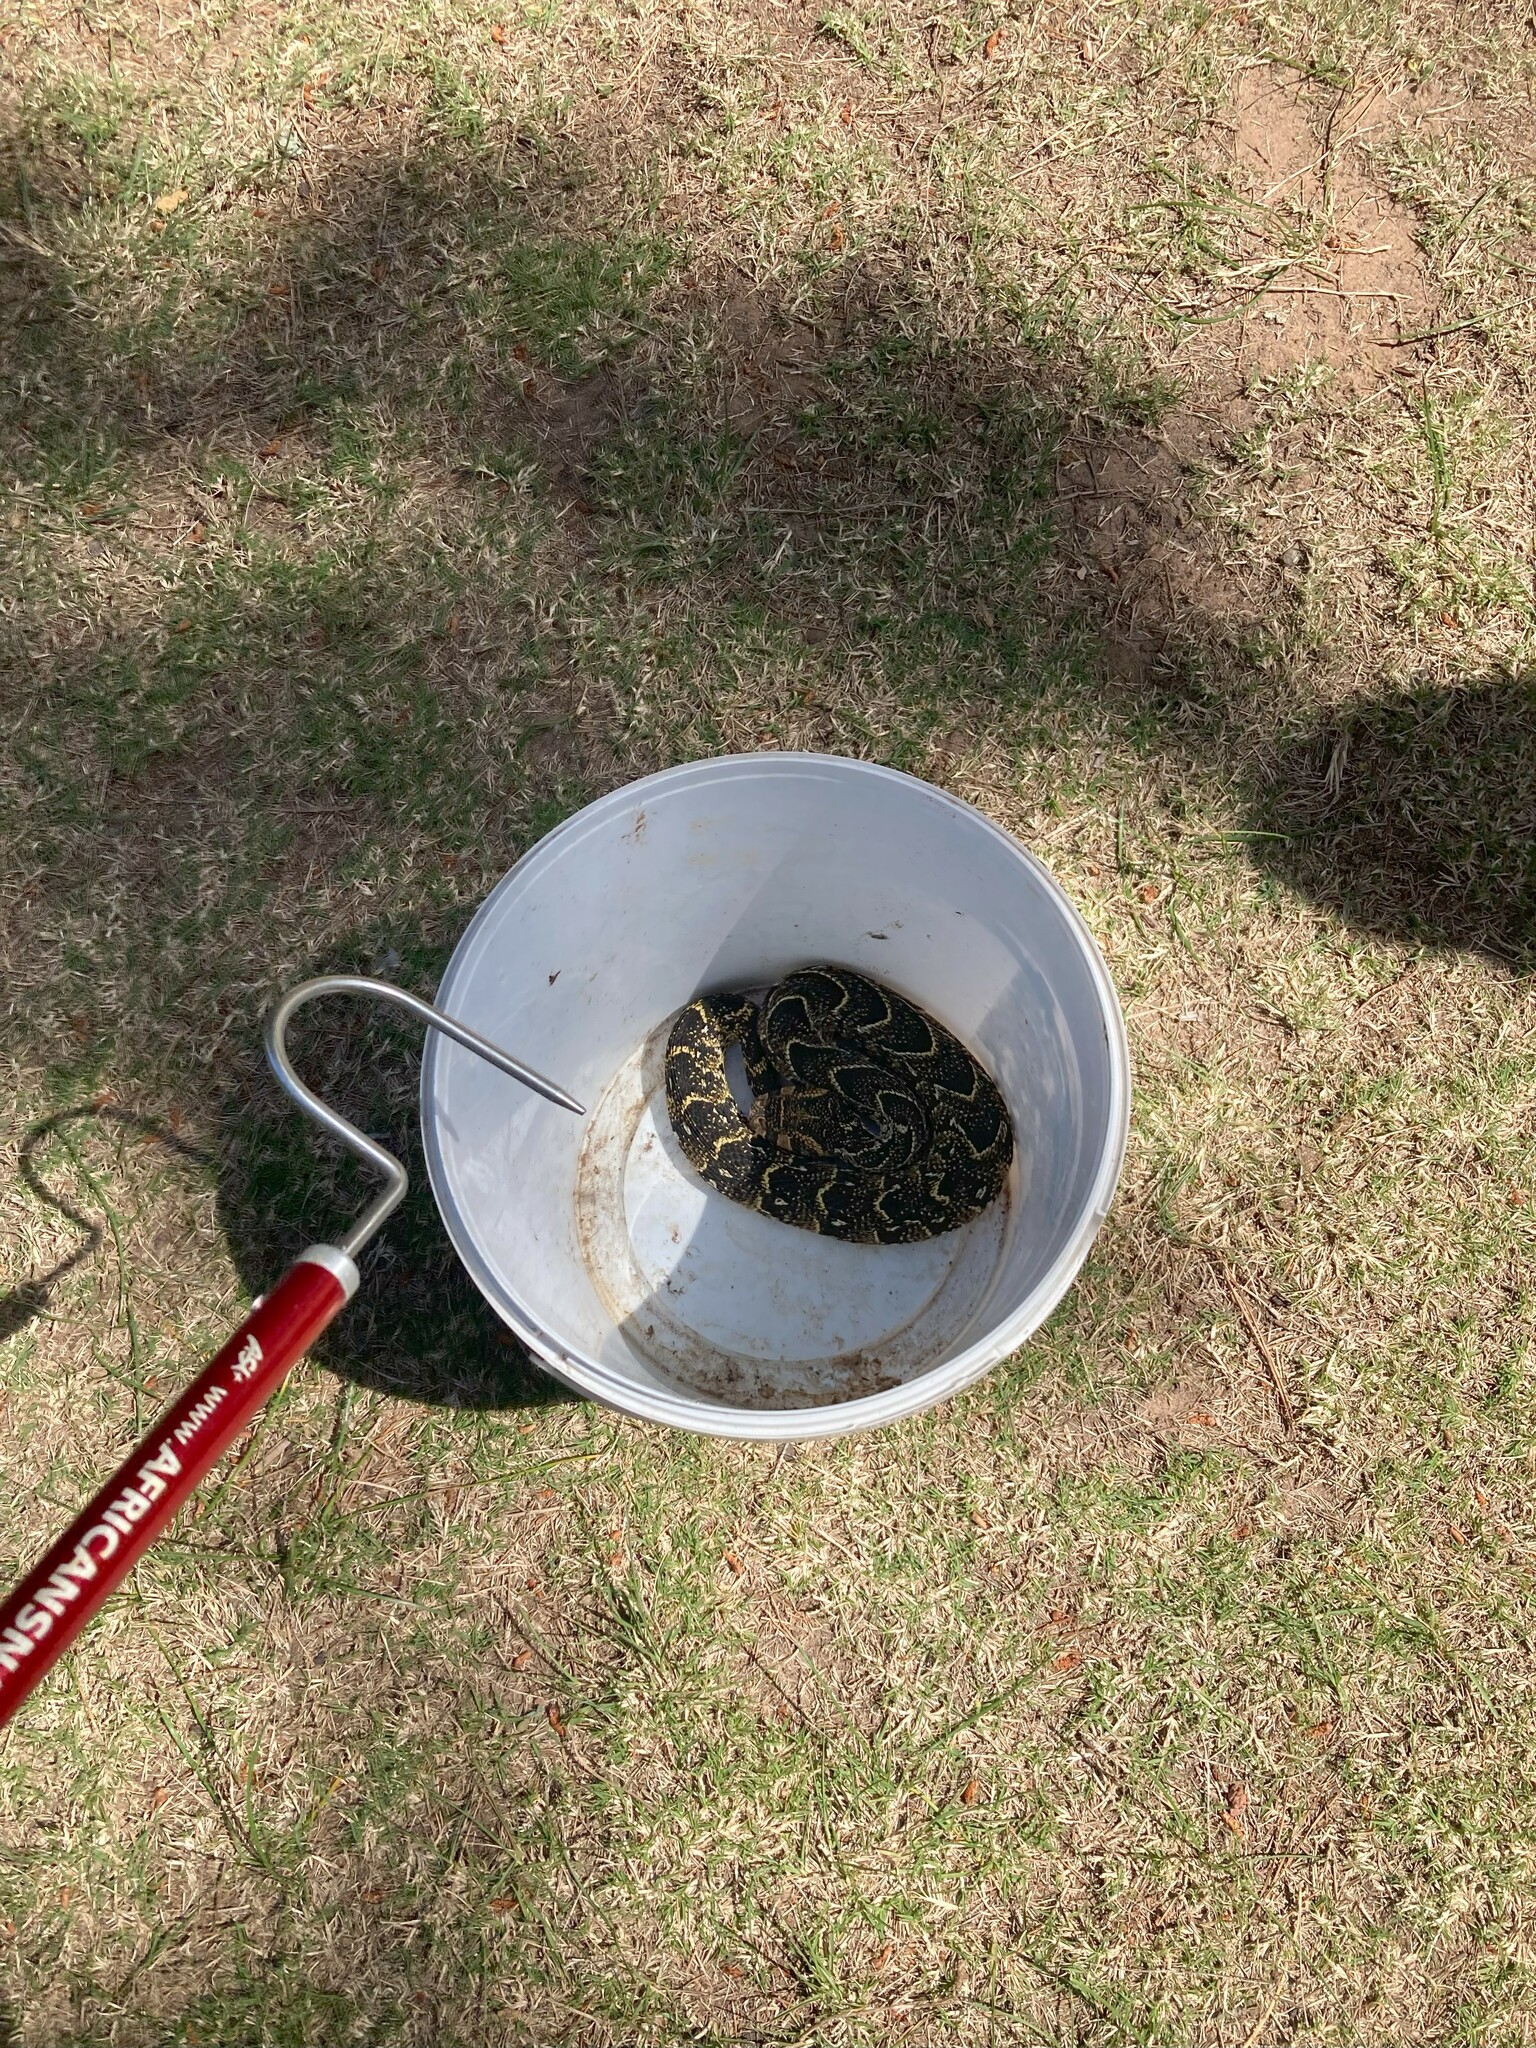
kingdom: Animalia
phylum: Chordata
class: Squamata
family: Viperidae
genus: Bitis
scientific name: Bitis arietans
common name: Puff adder
